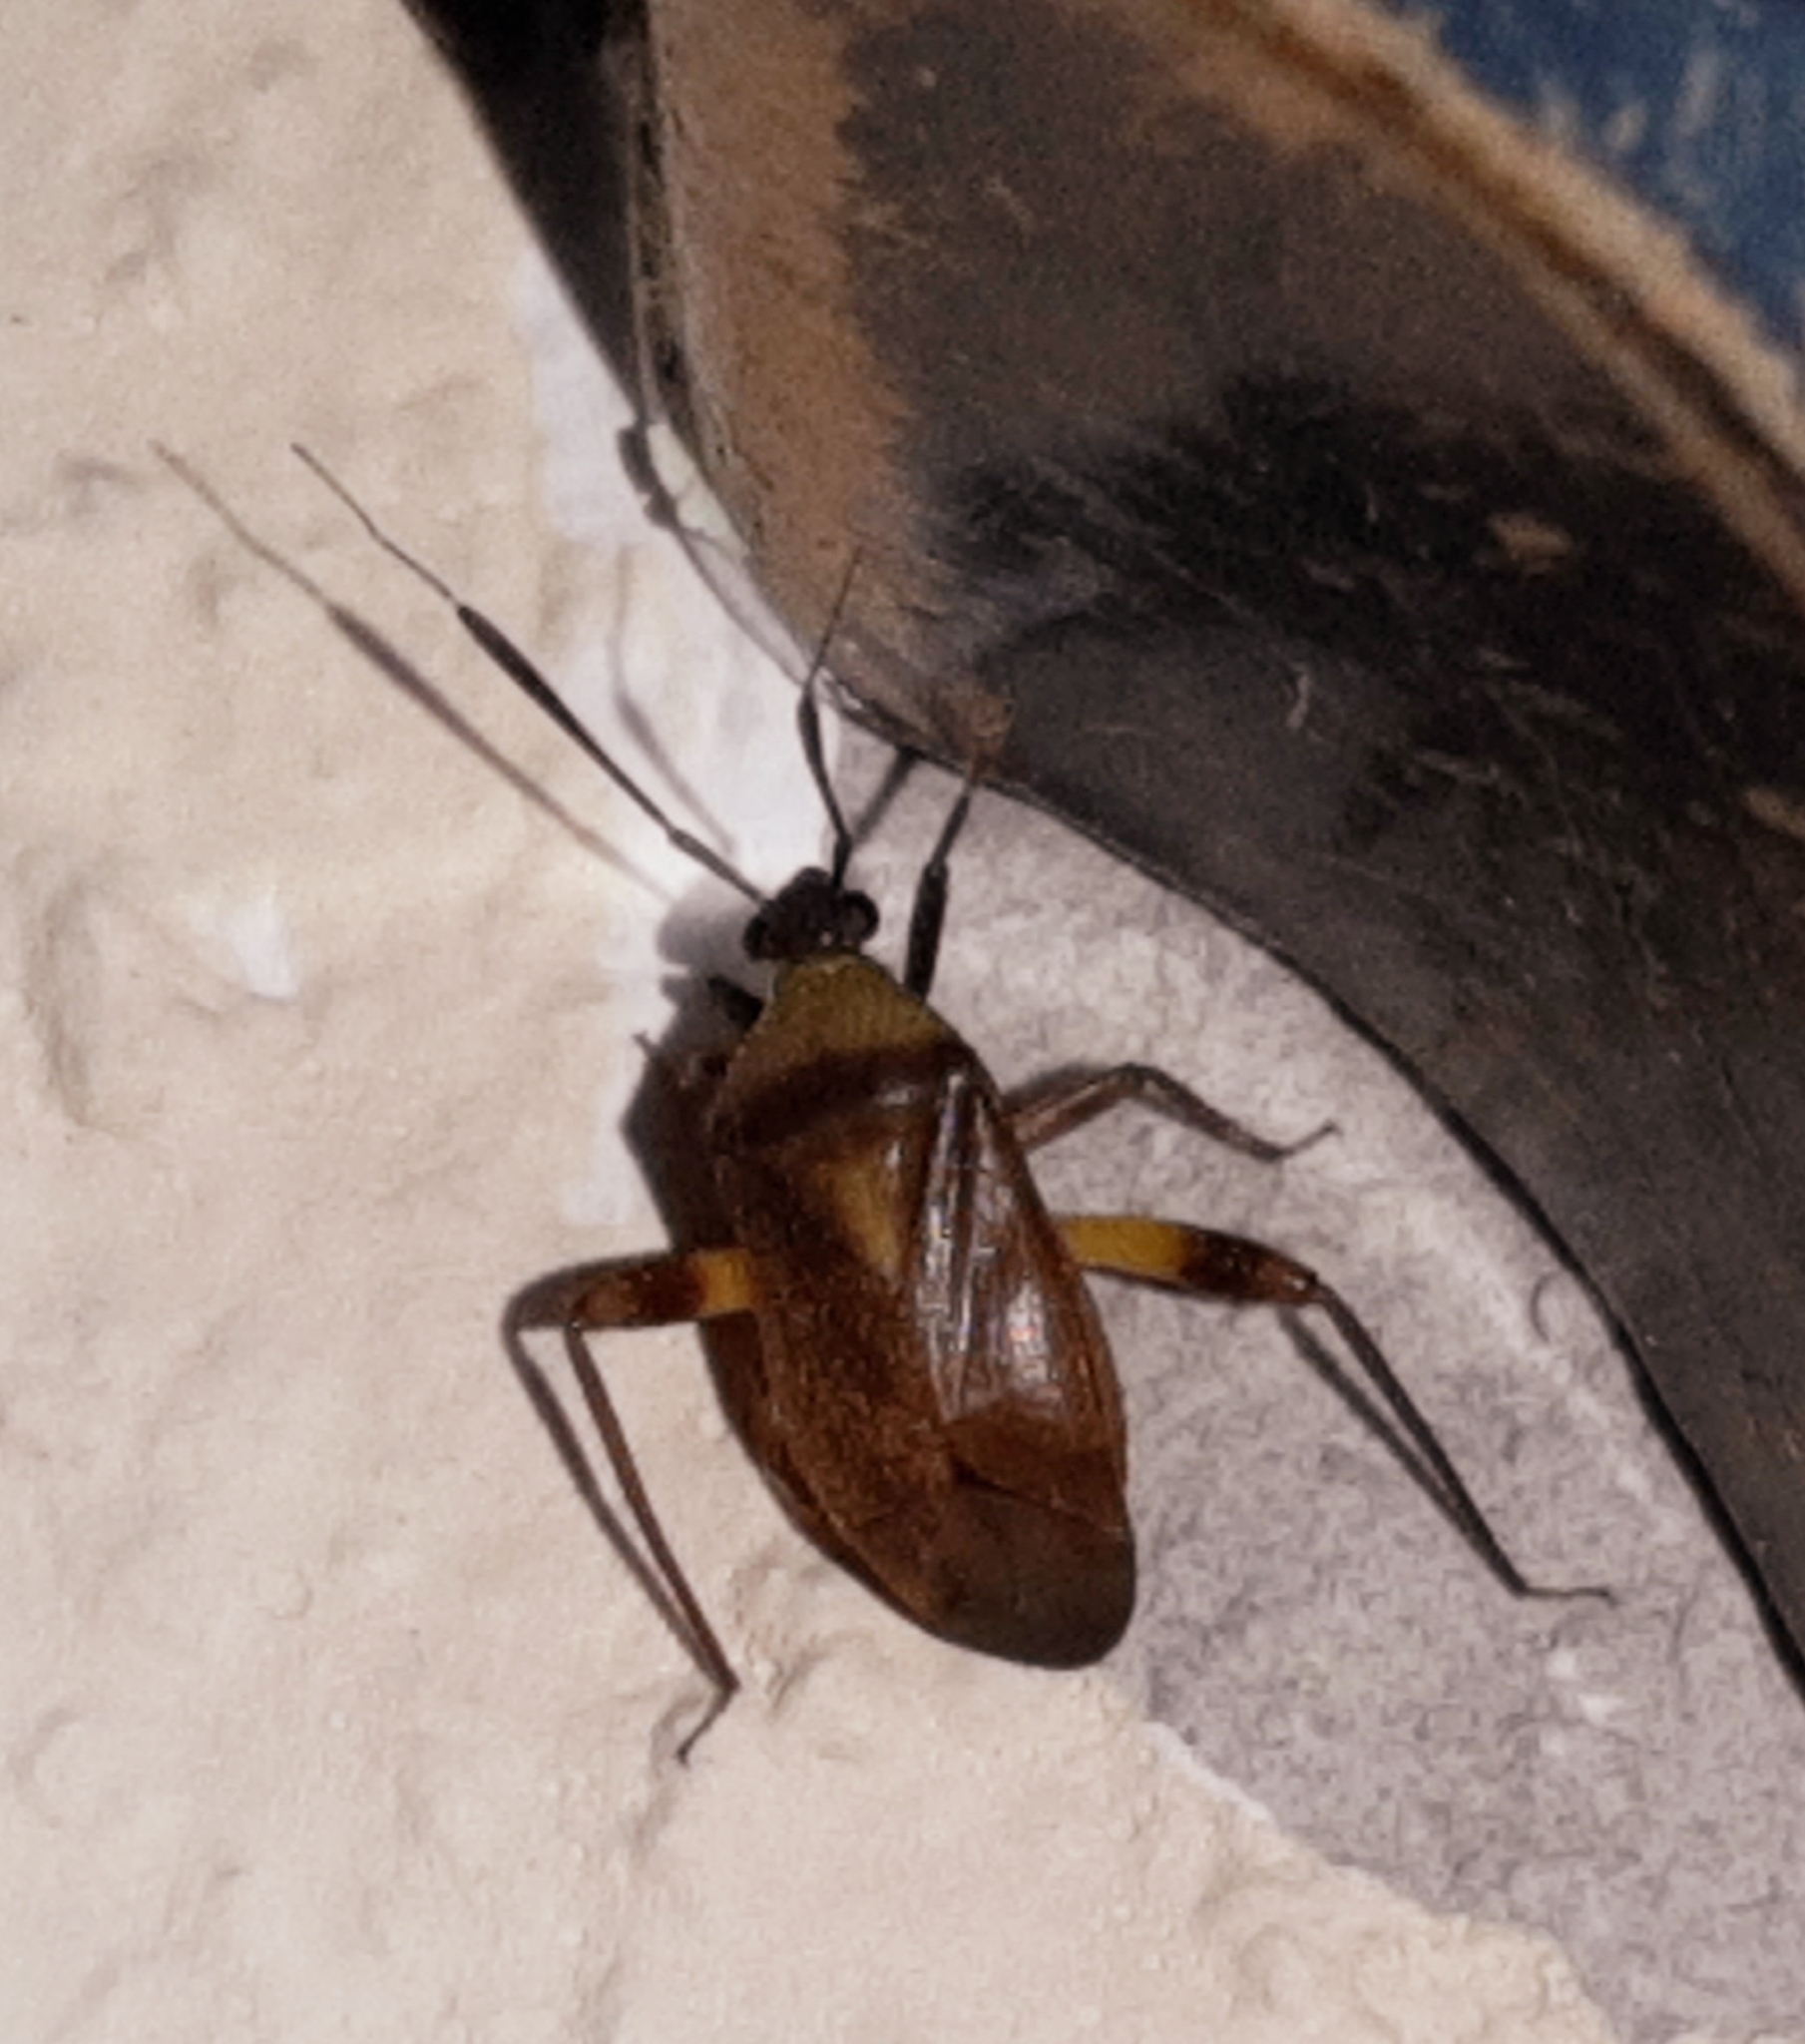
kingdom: Animalia
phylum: Arthropoda
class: Insecta
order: Hemiptera
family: Miridae
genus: Notholopus
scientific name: Notholopus lunatus
